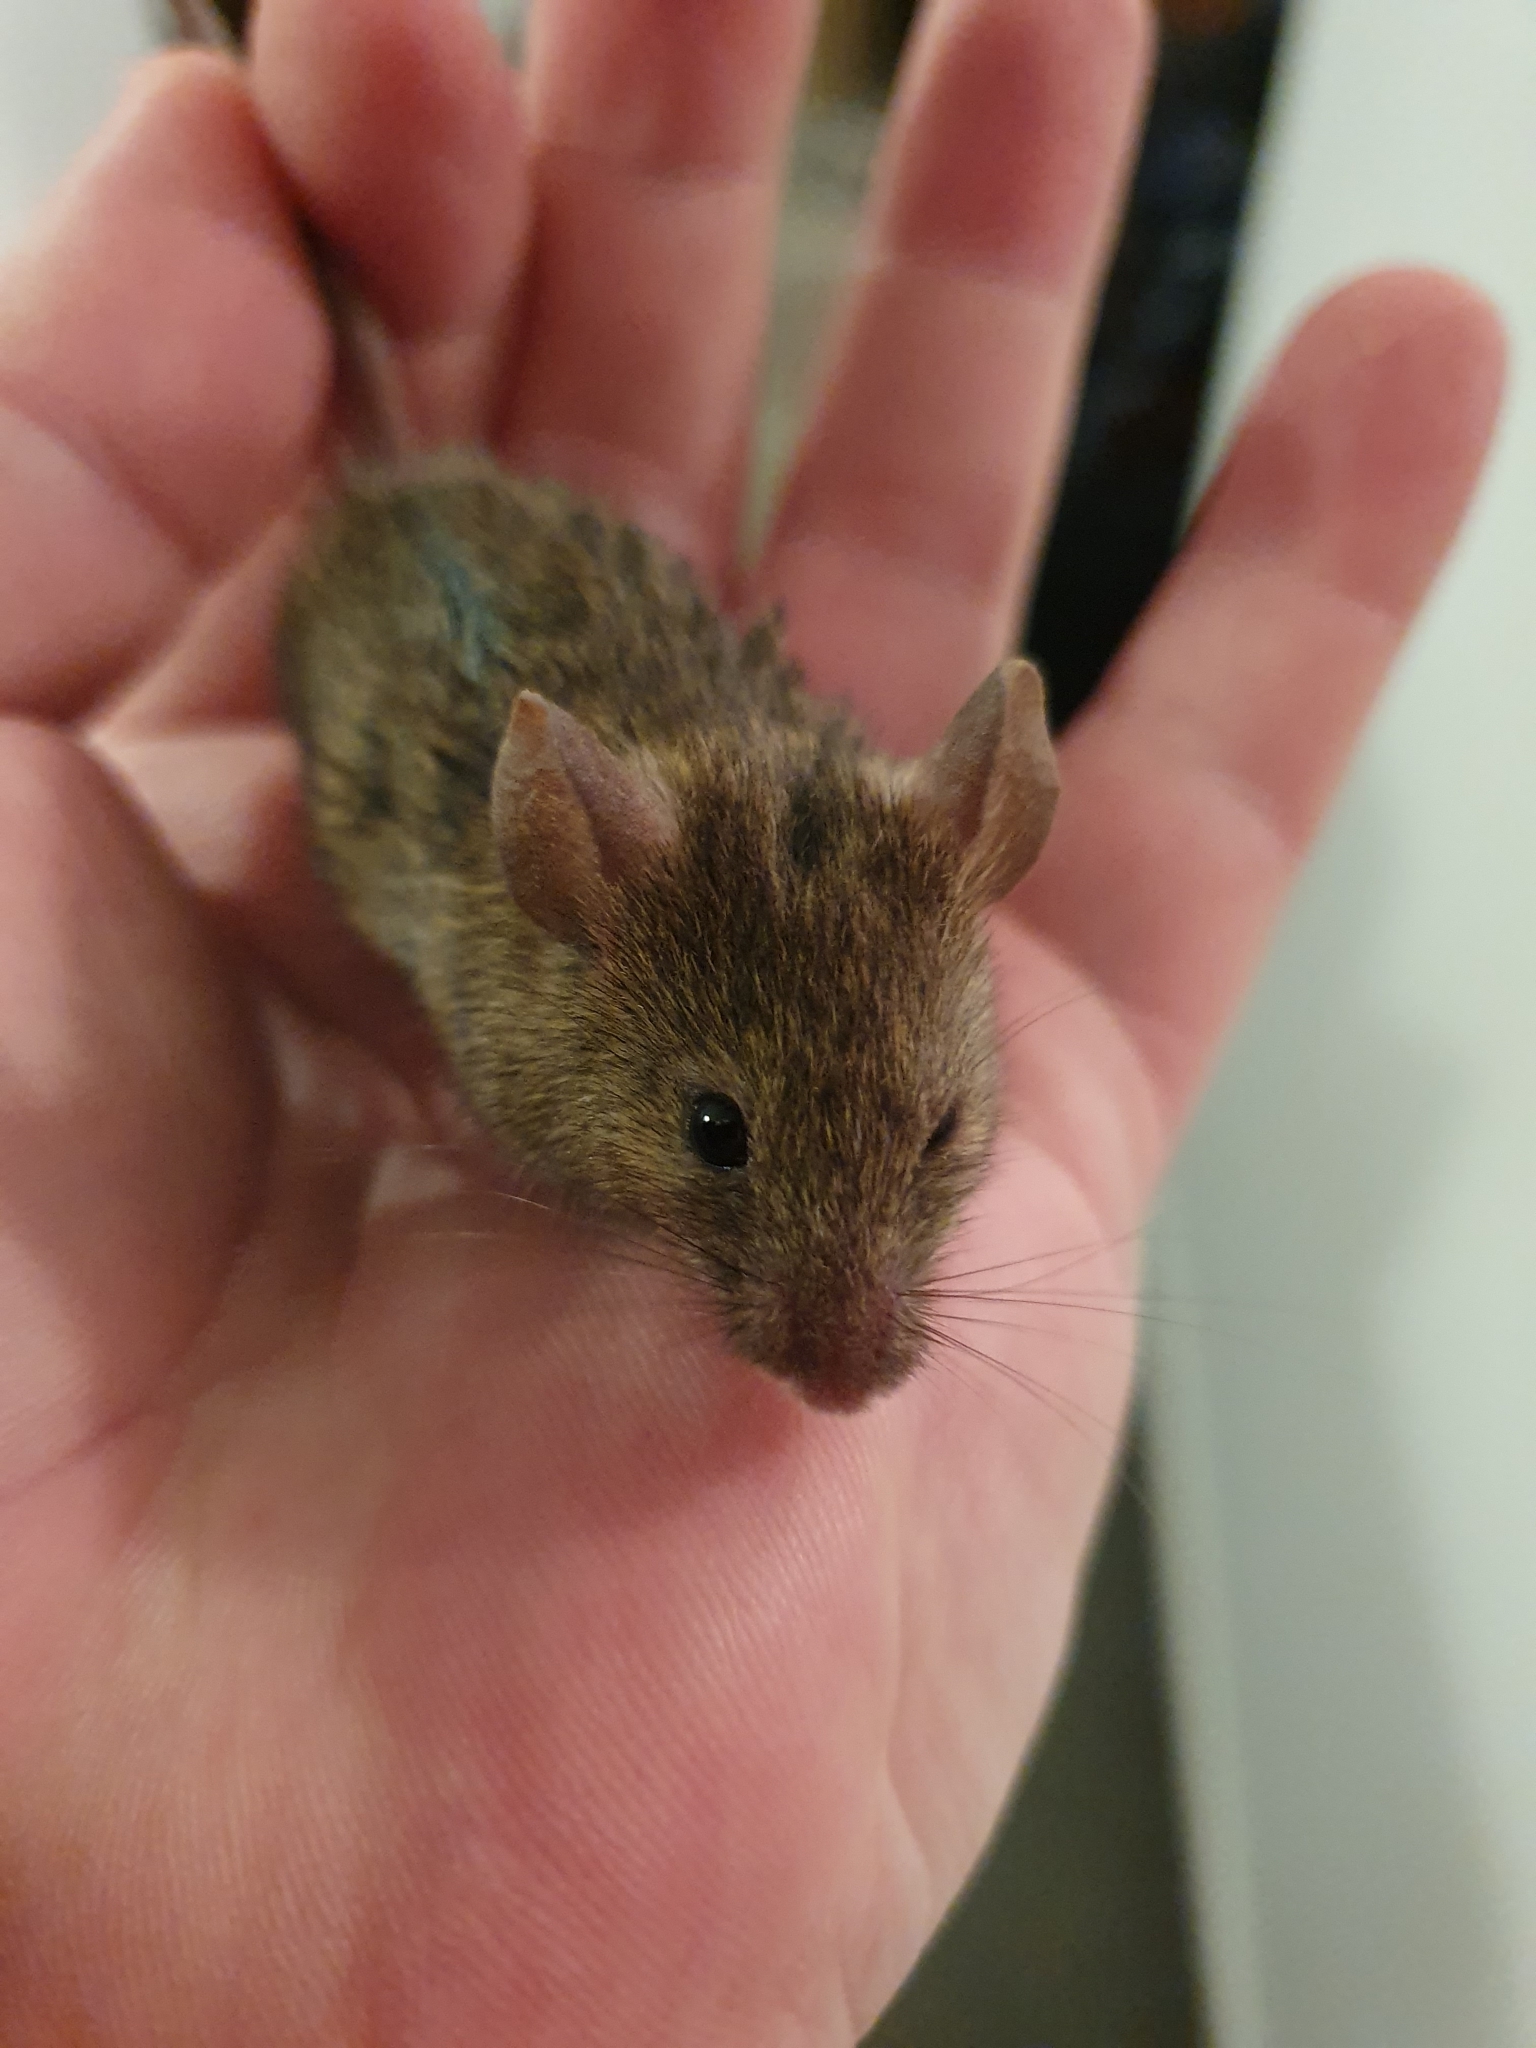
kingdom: Animalia
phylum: Chordata
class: Mammalia
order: Rodentia
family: Muridae
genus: Mus
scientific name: Mus musculus
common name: House mouse
